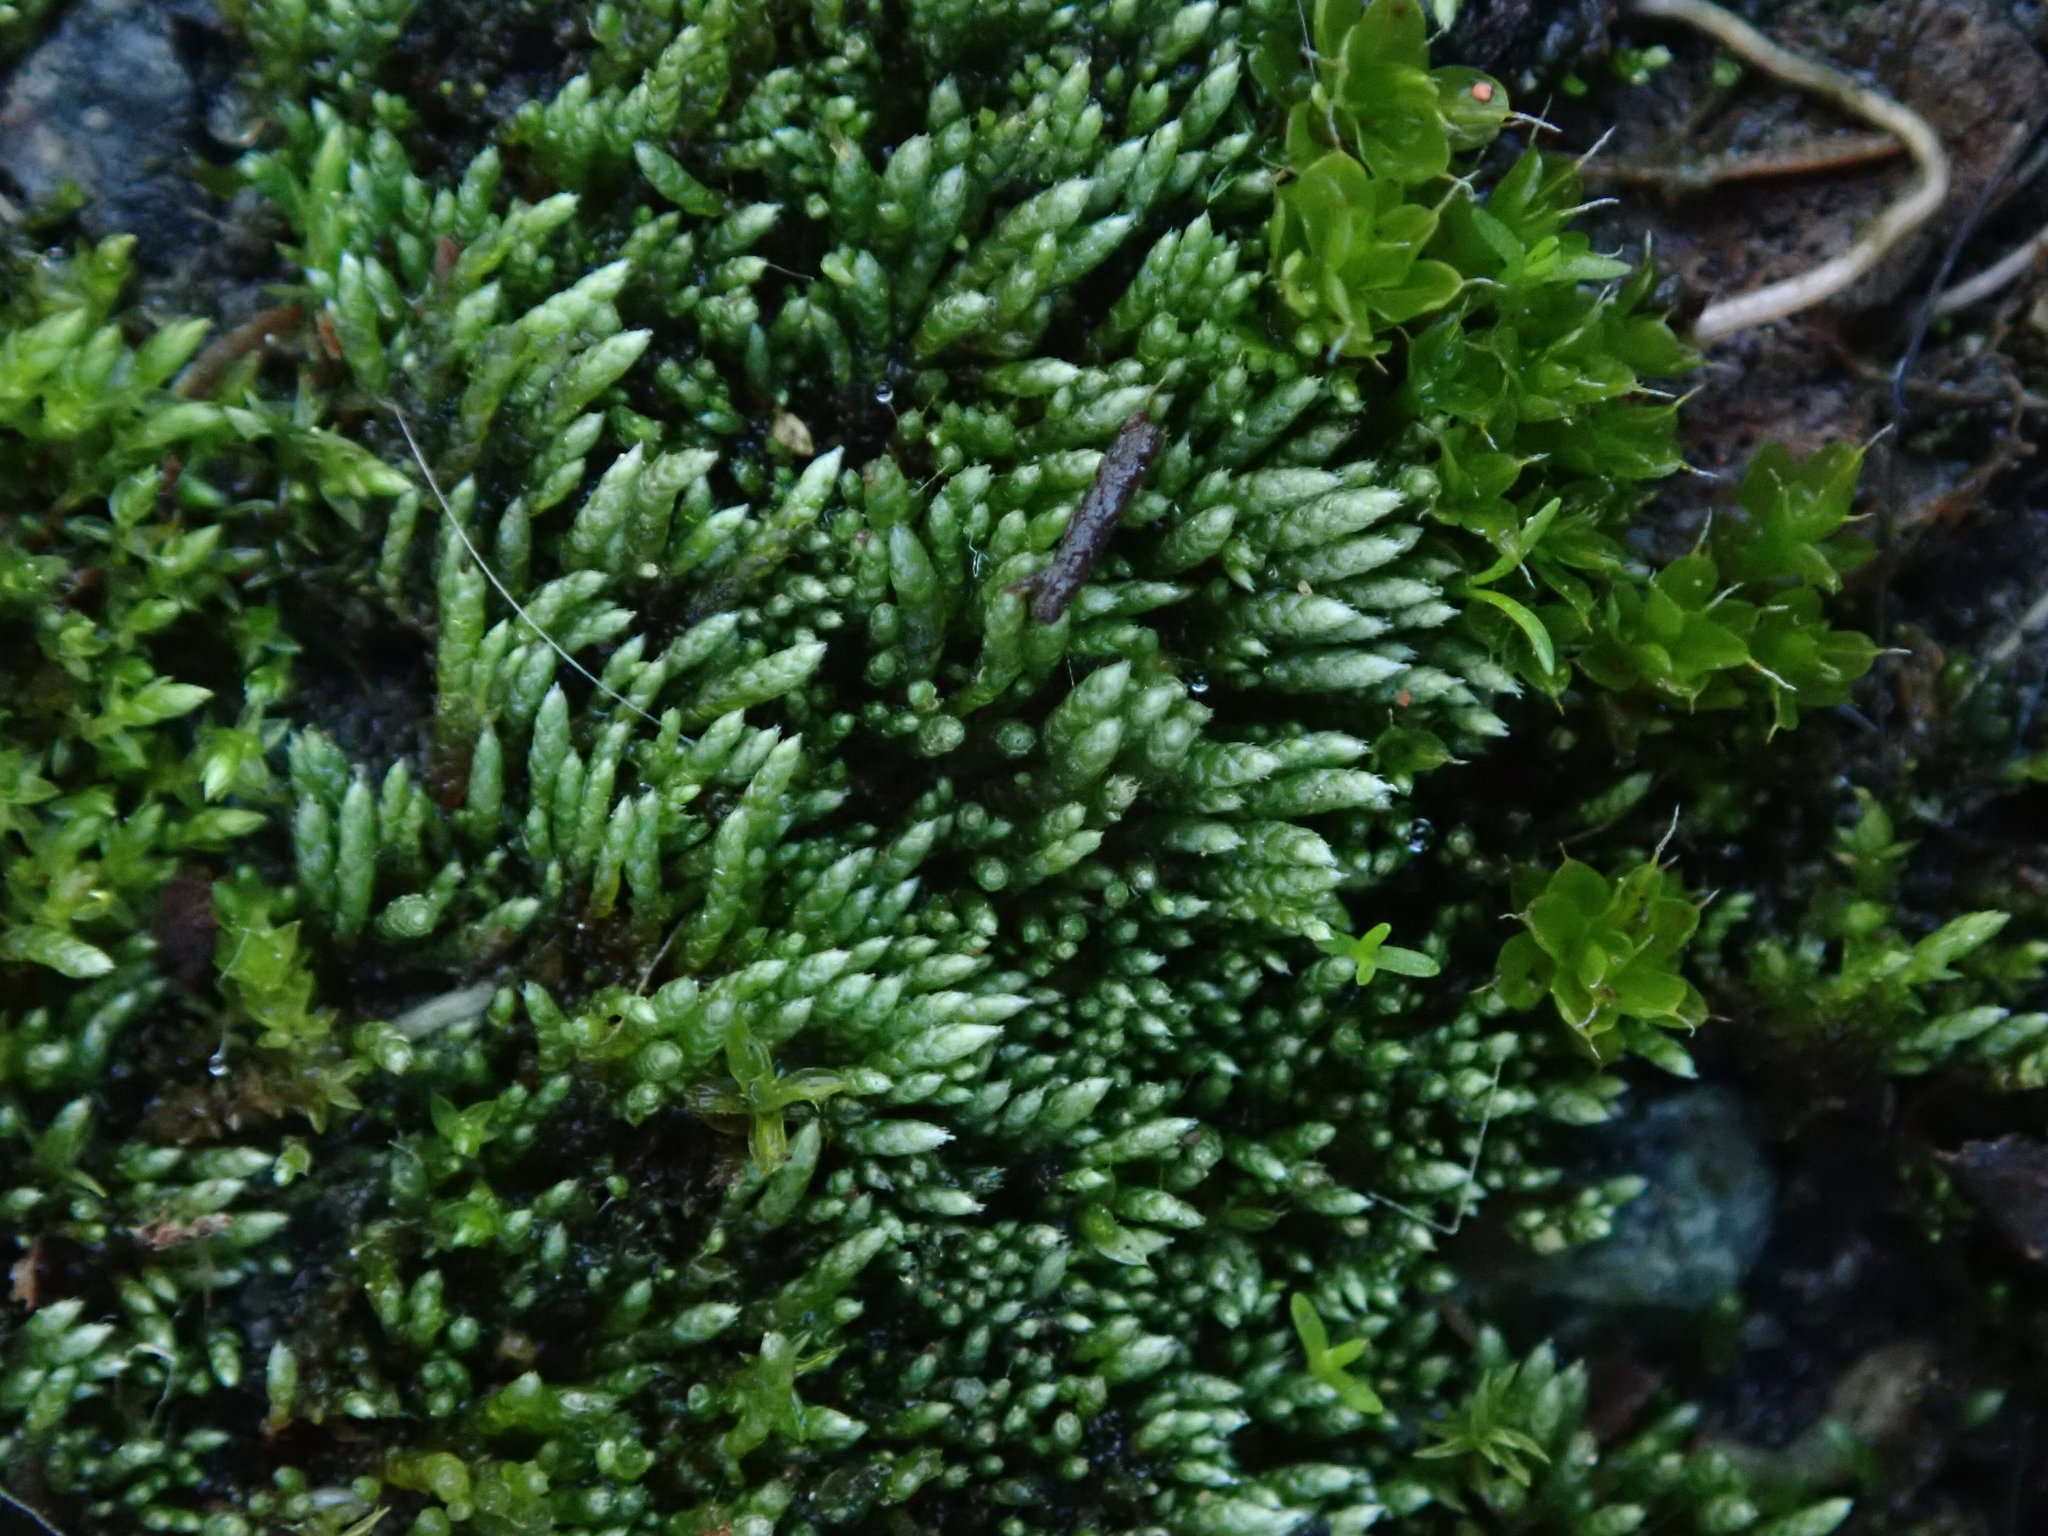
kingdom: Plantae
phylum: Bryophyta
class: Bryopsida
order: Bryales
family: Bryaceae
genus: Bryum
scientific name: Bryum argenteum
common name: Silver-moss
